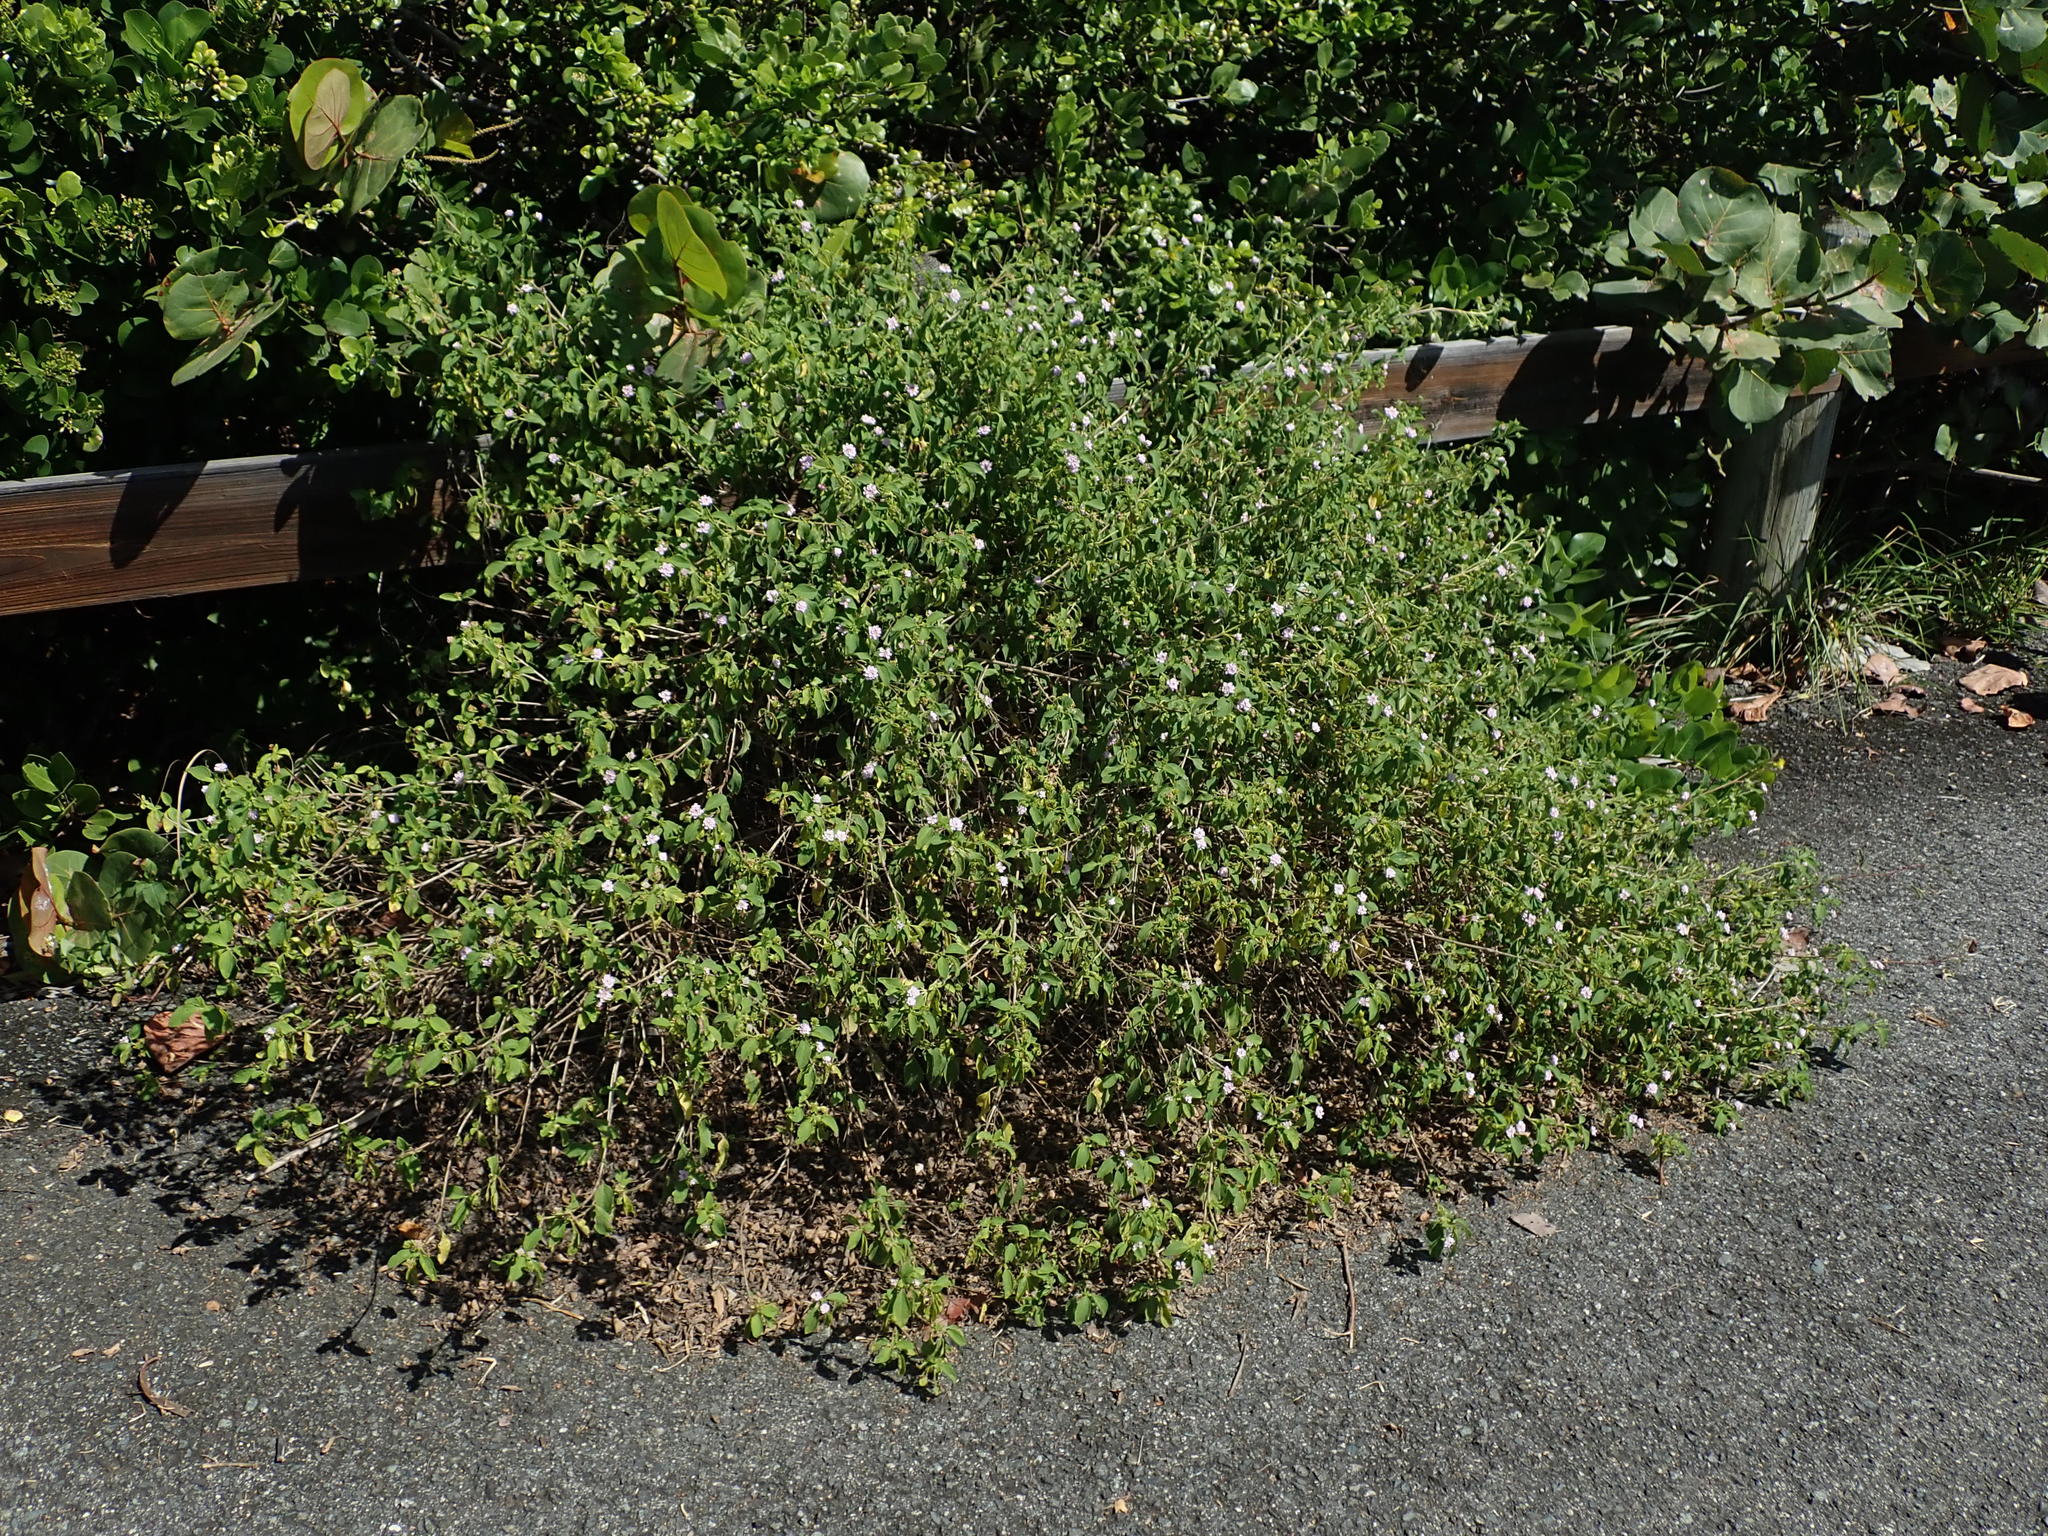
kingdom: Plantae
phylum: Tracheophyta
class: Magnoliopsida
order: Lamiales
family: Verbenaceae
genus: Lantana
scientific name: Lantana involucrata
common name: Black sage
